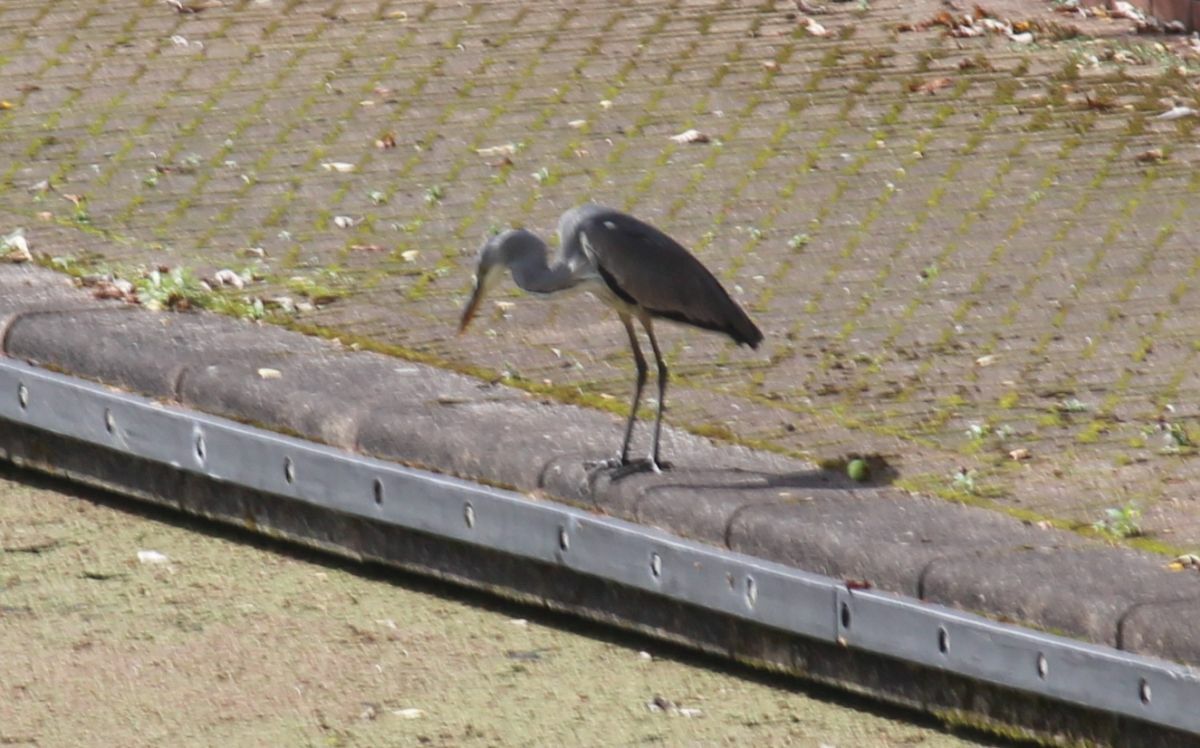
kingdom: Animalia
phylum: Chordata
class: Aves
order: Pelecaniformes
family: Ardeidae
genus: Ardea
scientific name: Ardea cinerea
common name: Grey heron
